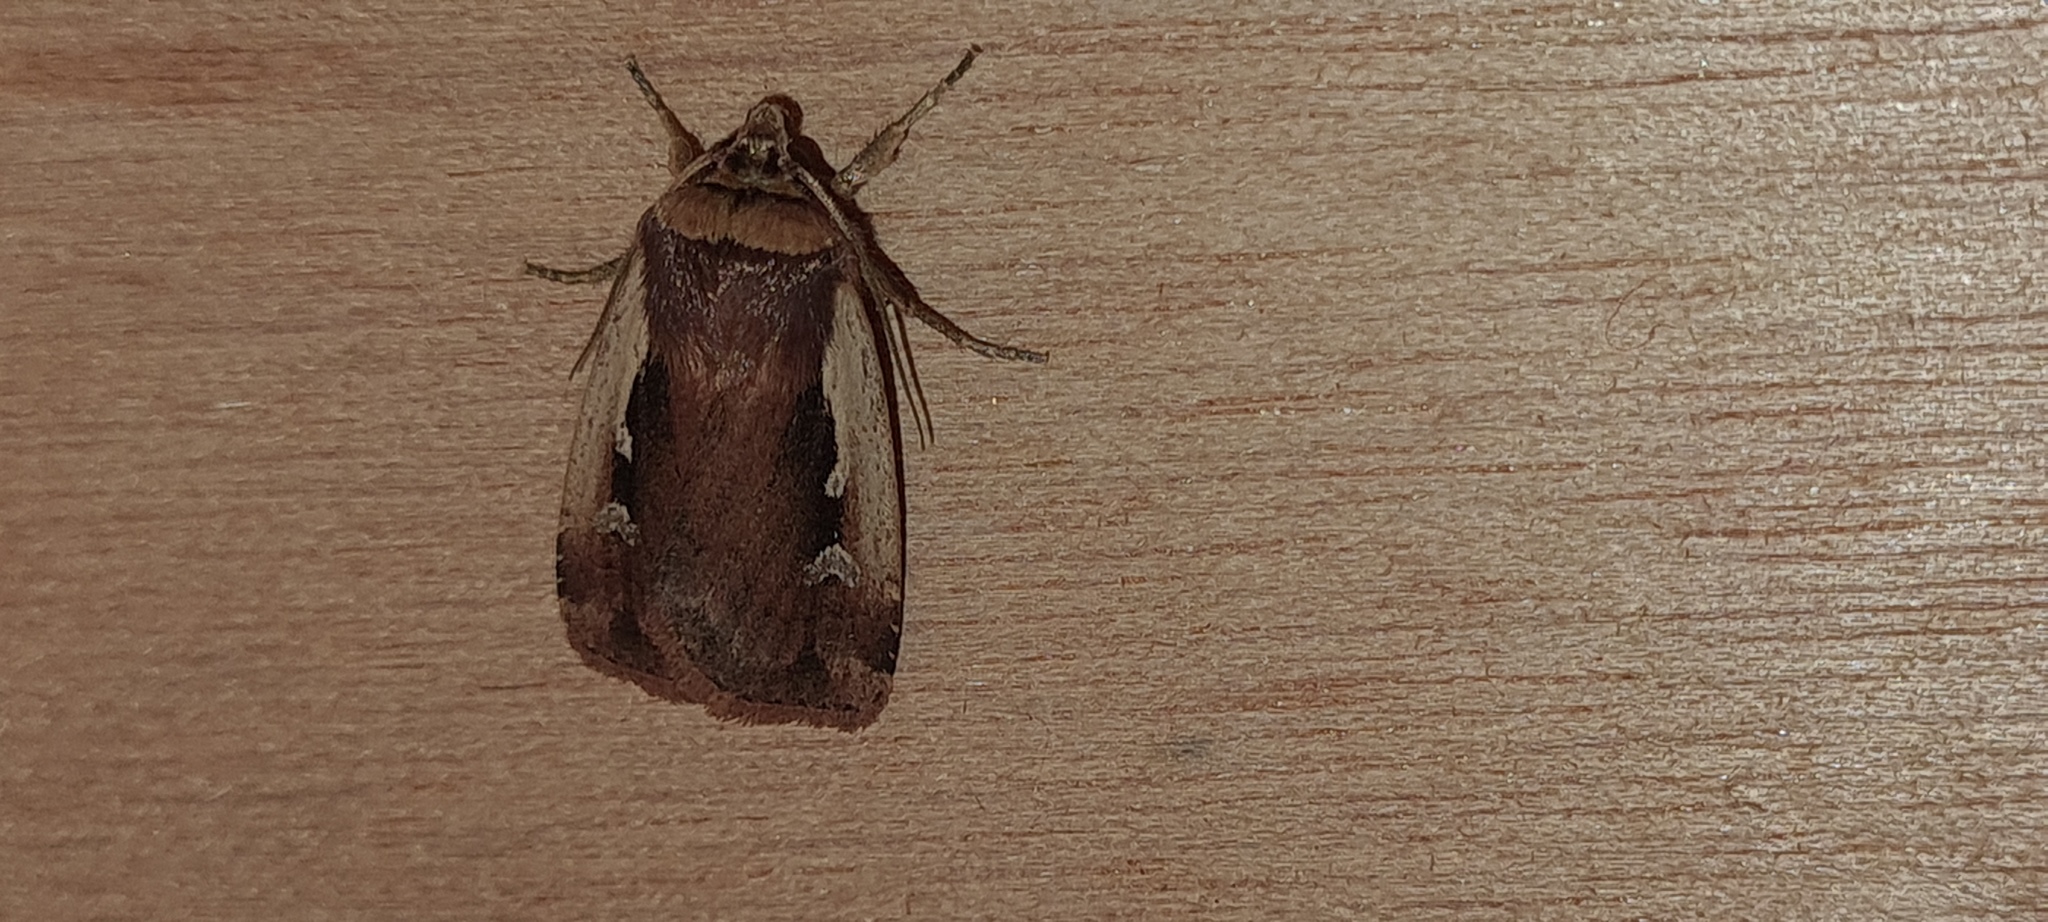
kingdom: Animalia
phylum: Arthropoda
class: Insecta
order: Lepidoptera
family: Noctuidae
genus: Ochropleura
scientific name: Ochropleura plecta
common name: Flame shoulder
